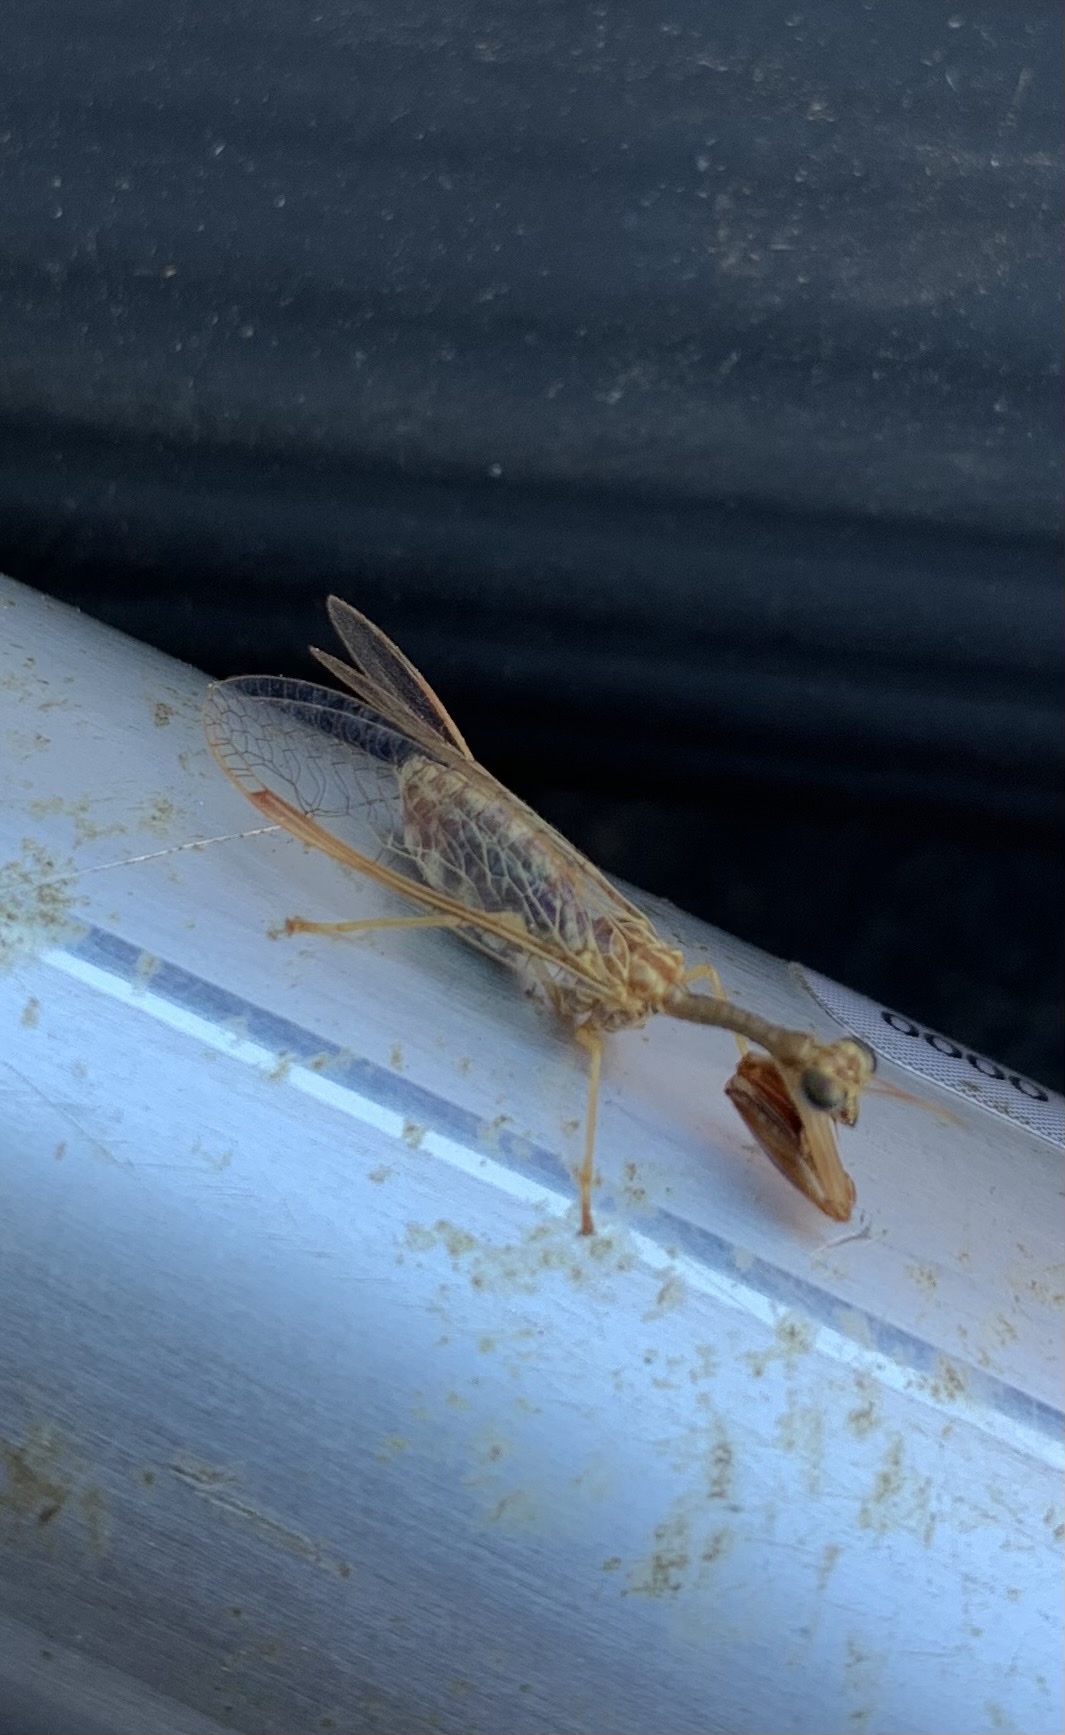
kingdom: Animalia
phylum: Arthropoda
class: Insecta
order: Neuroptera
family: Mantispidae
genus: Dicromantispa
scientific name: Dicromantispa sayi
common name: Say's mantidfly
